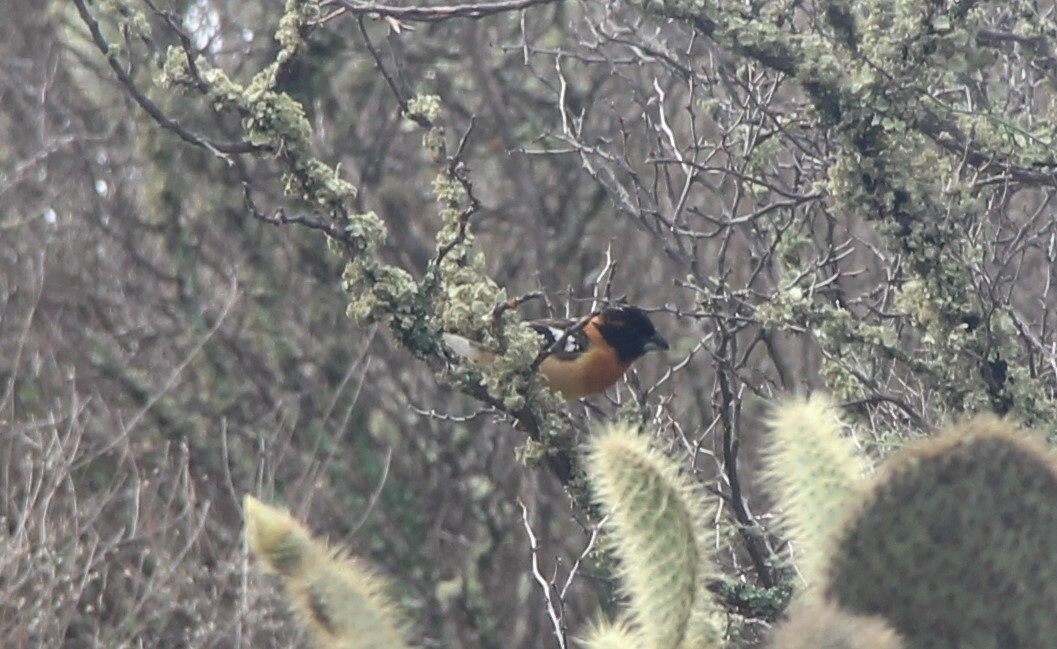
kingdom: Animalia
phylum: Chordata
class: Aves
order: Passeriformes
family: Cardinalidae
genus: Pheucticus
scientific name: Pheucticus melanocephalus
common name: Black-headed grosbeak
